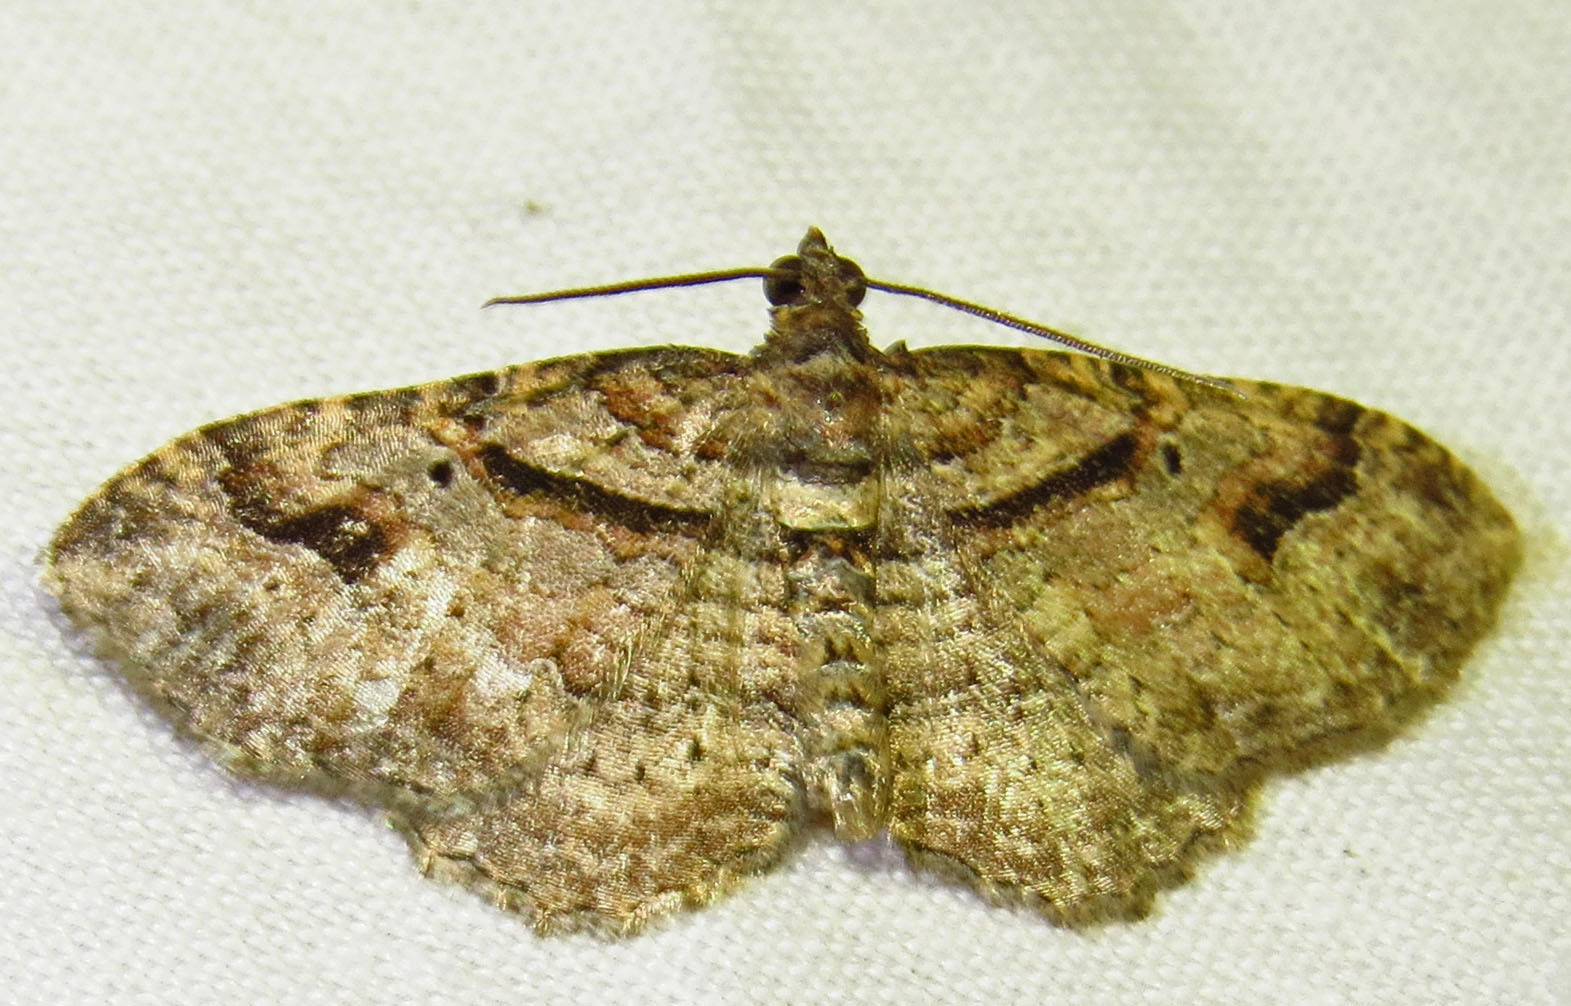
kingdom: Animalia
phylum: Arthropoda
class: Insecta
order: Lepidoptera
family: Geometridae
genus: Costaconvexa
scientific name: Costaconvexa centrostrigaria
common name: Bent-line carpet
